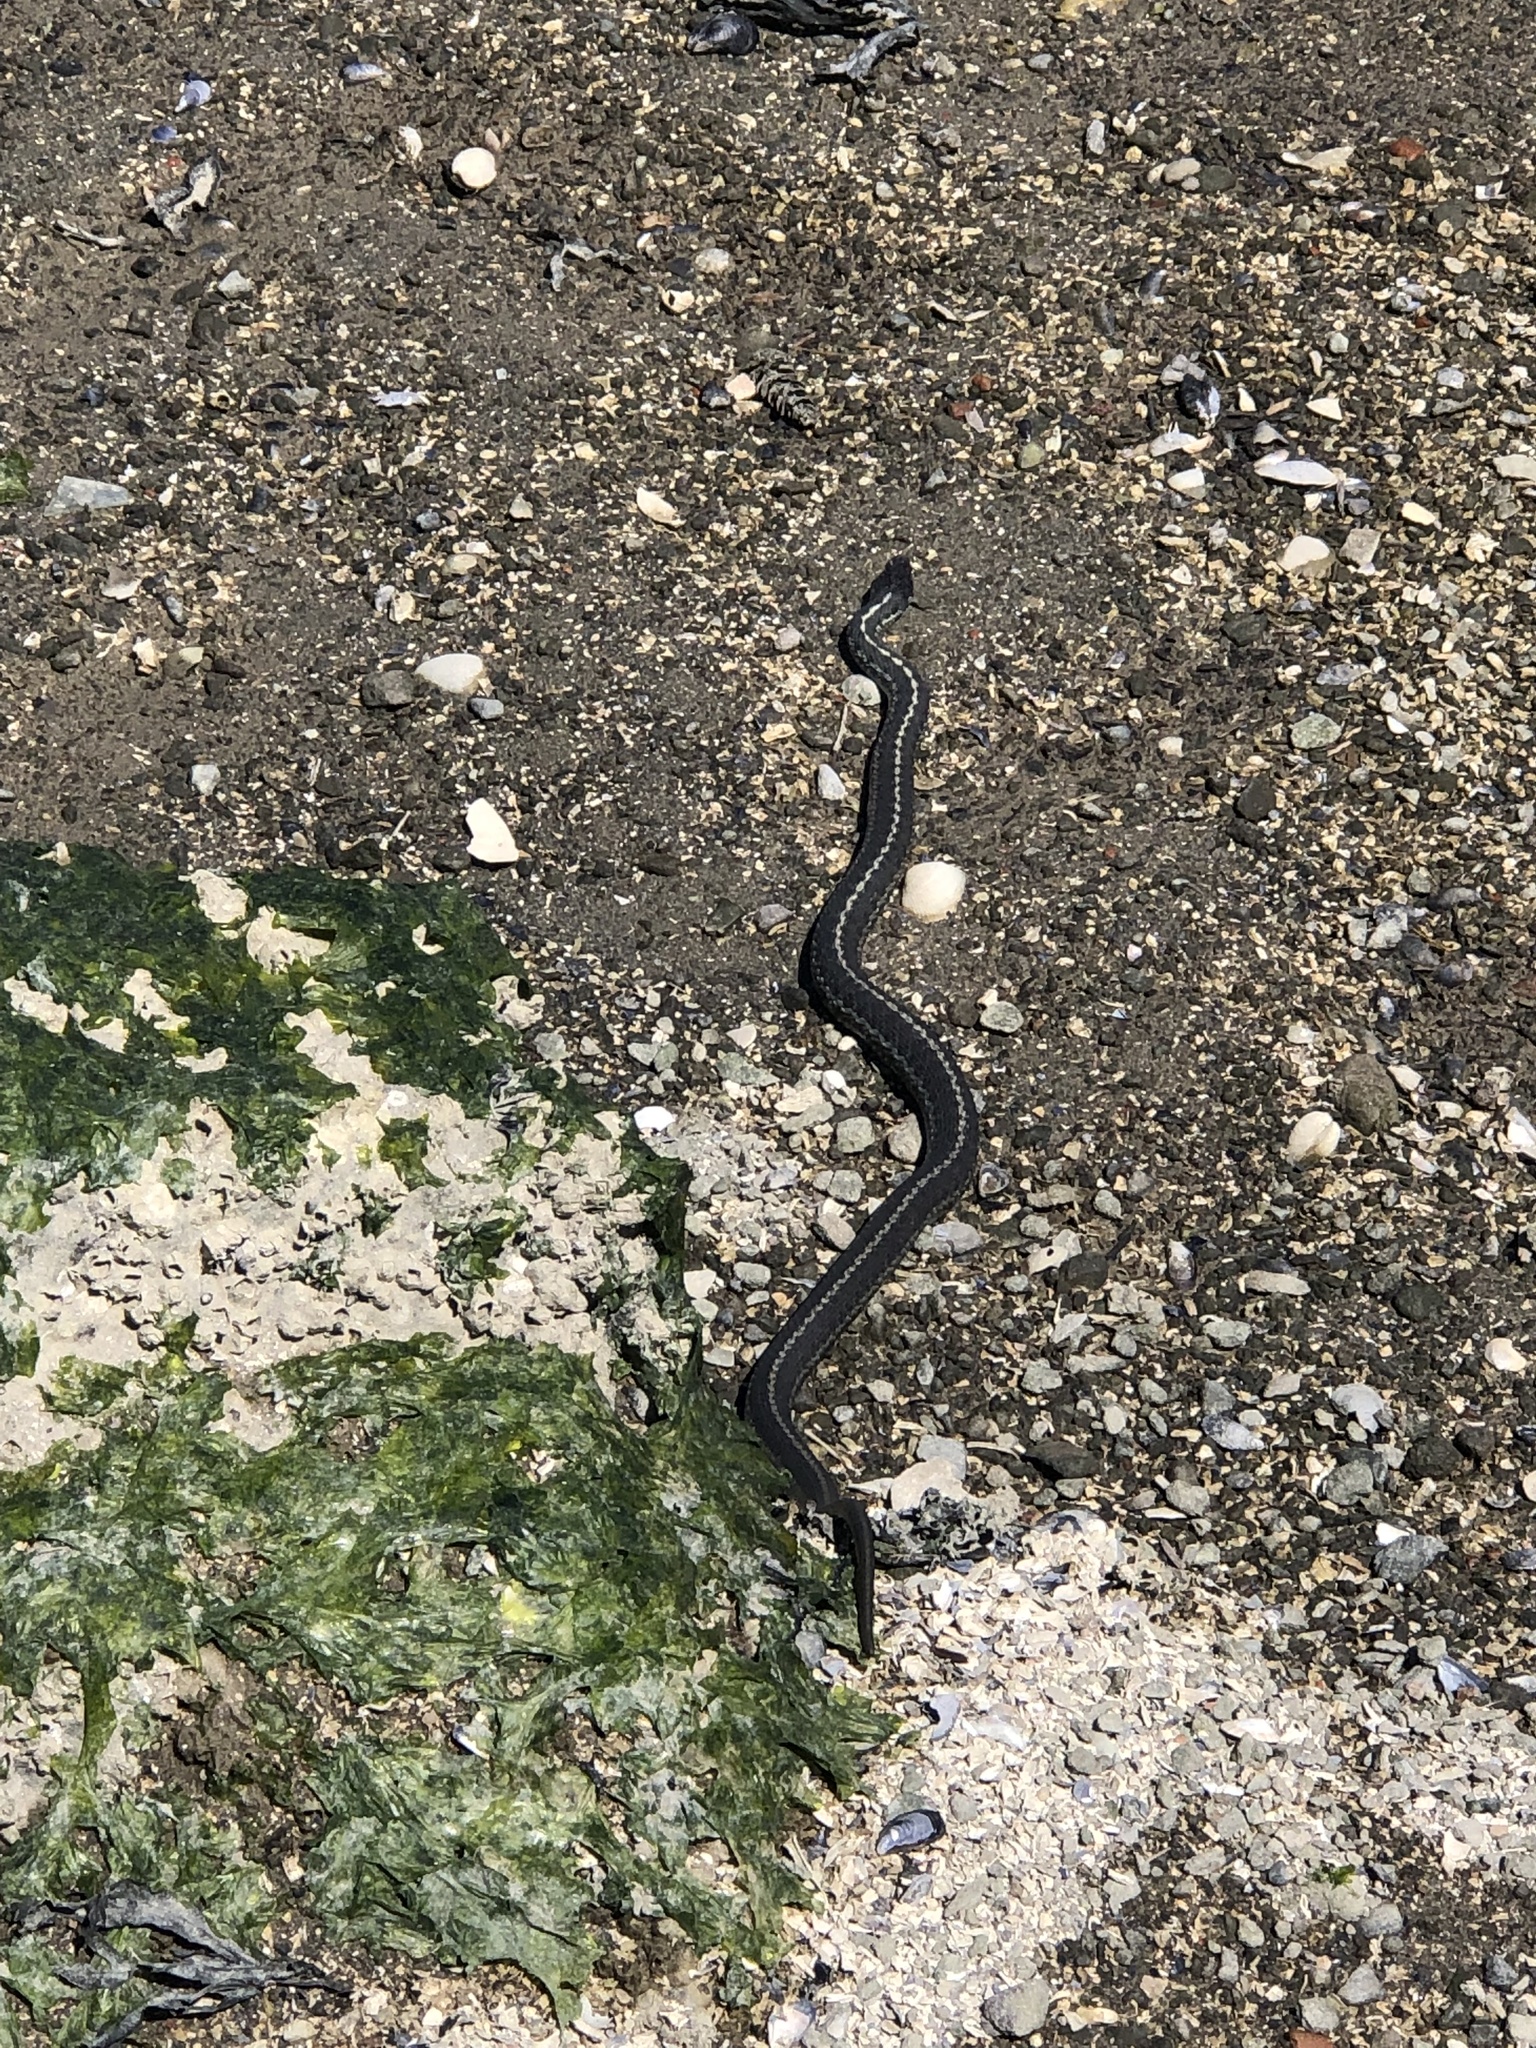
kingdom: Animalia
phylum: Chordata
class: Squamata
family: Colubridae
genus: Thamnophis
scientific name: Thamnophis elegans
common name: Western terrestrial garter snake
